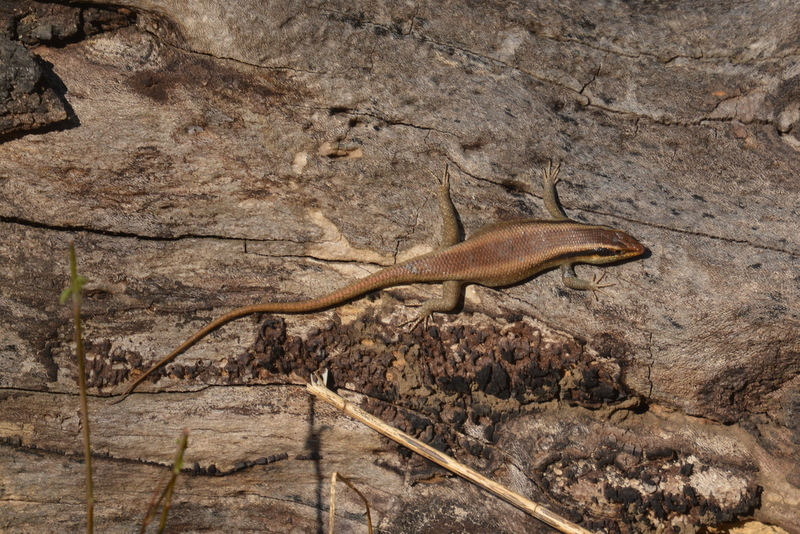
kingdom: Animalia
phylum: Chordata
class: Squamata
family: Scincidae
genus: Trachylepis
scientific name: Trachylepis wahlbergii
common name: Wahlberg’s striped skink
